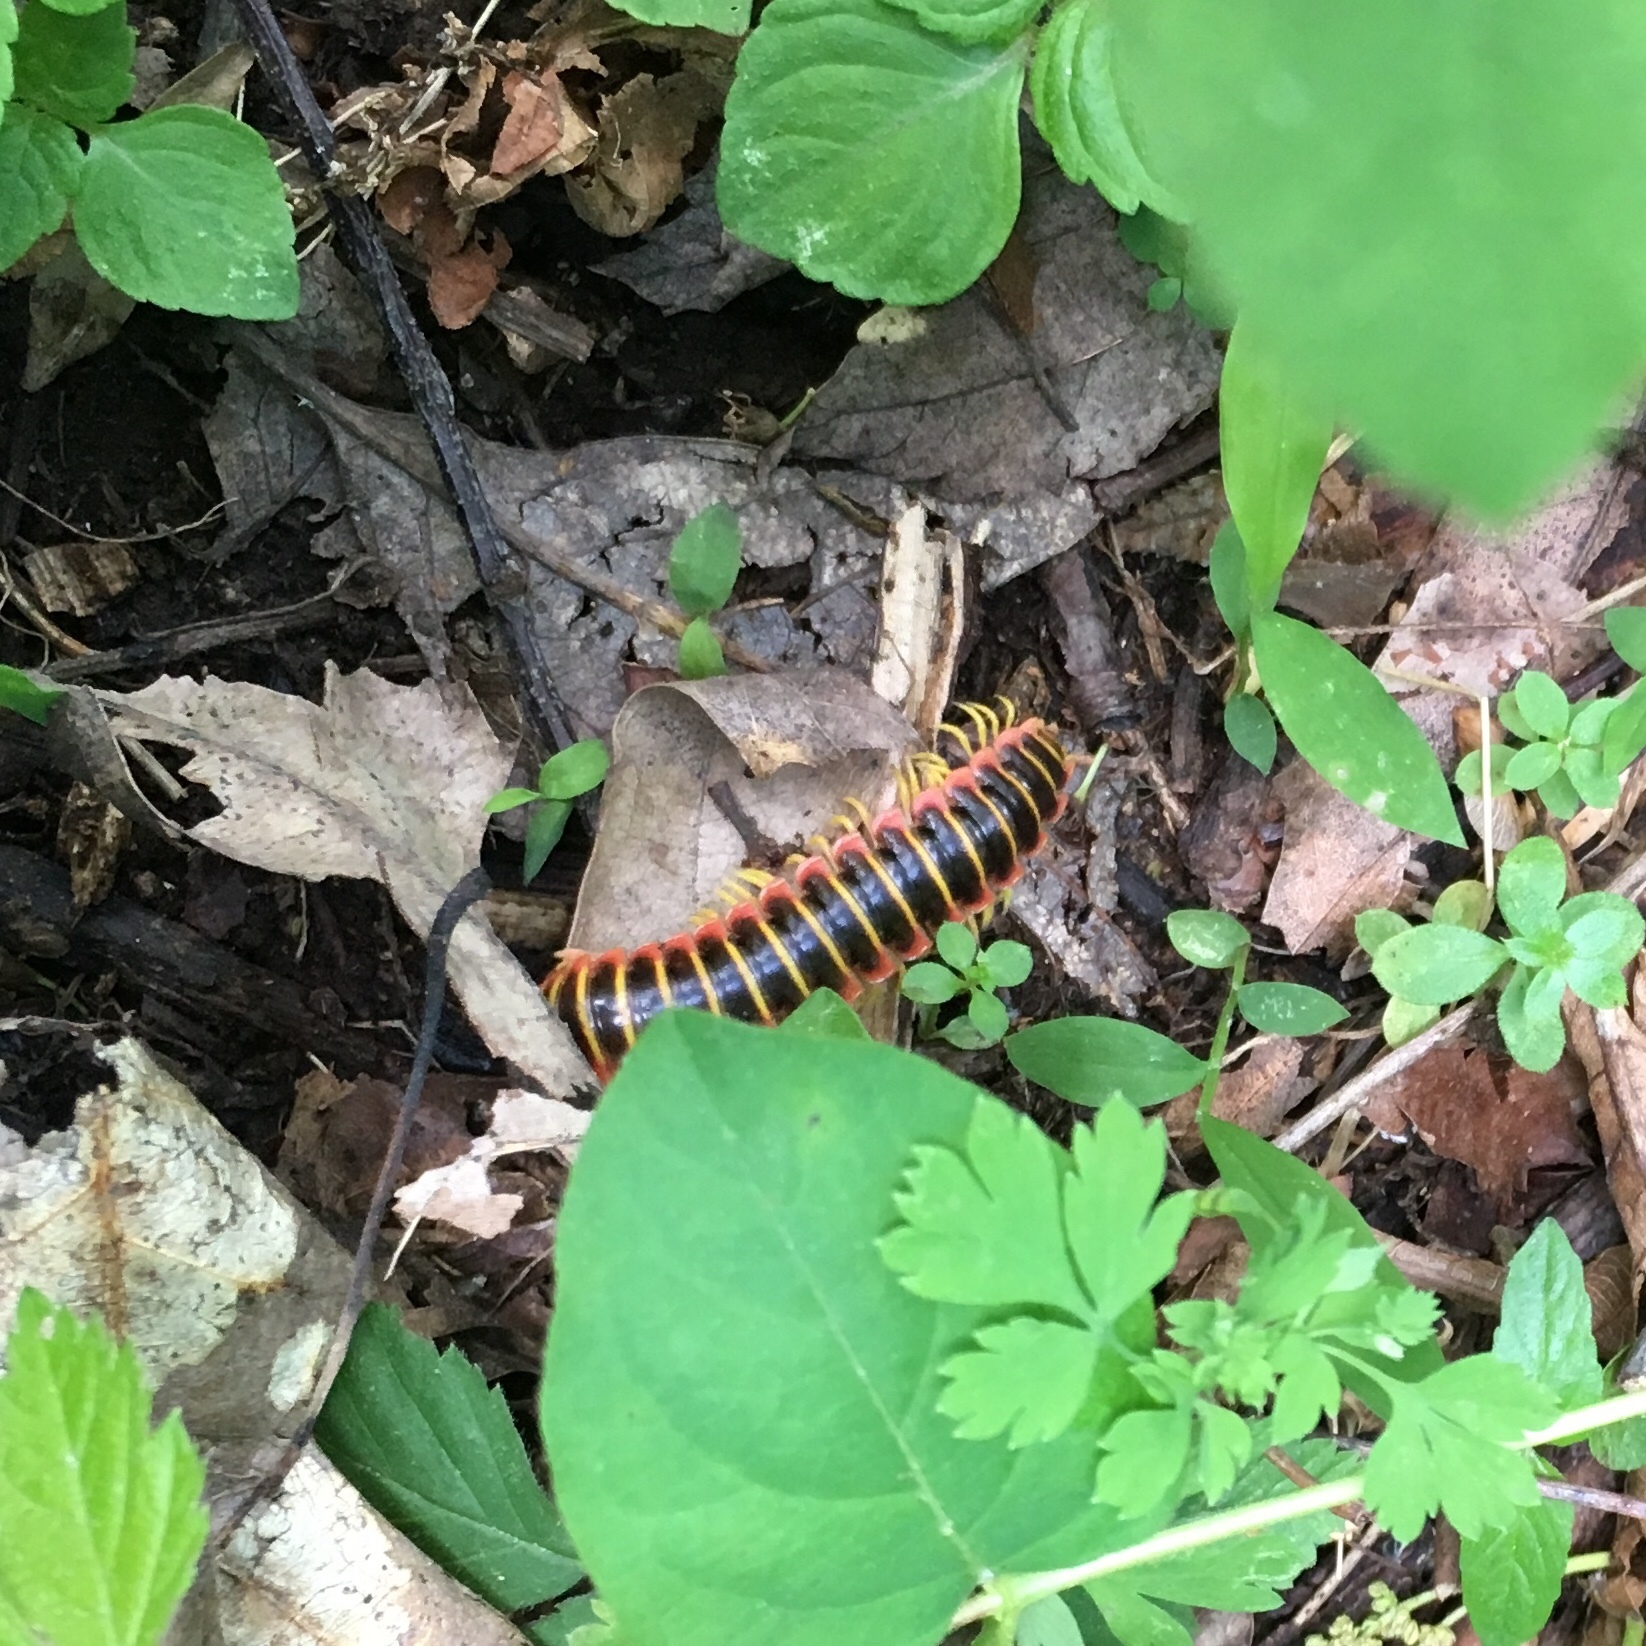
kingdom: Animalia
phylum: Arthropoda
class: Diplopoda
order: Polydesmida
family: Xystodesmidae
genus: Apheloria
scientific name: Apheloria virginiensis
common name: Black-and-gold flat millipede
